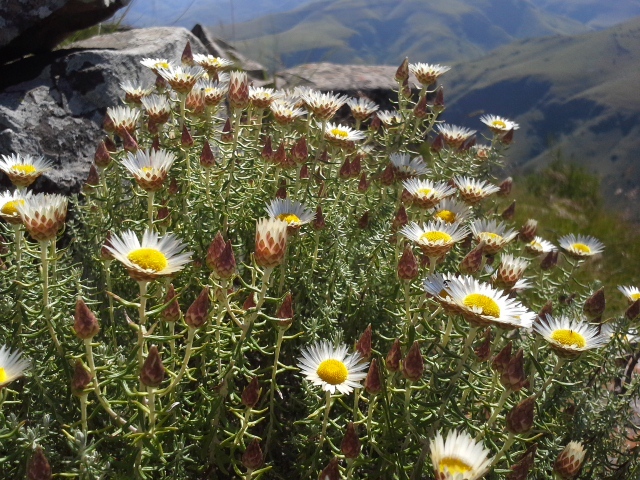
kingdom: Plantae
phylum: Tracheophyta
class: Magnoliopsida
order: Asterales
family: Asteraceae
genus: Helichrysum
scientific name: Helichrysum reflexum
